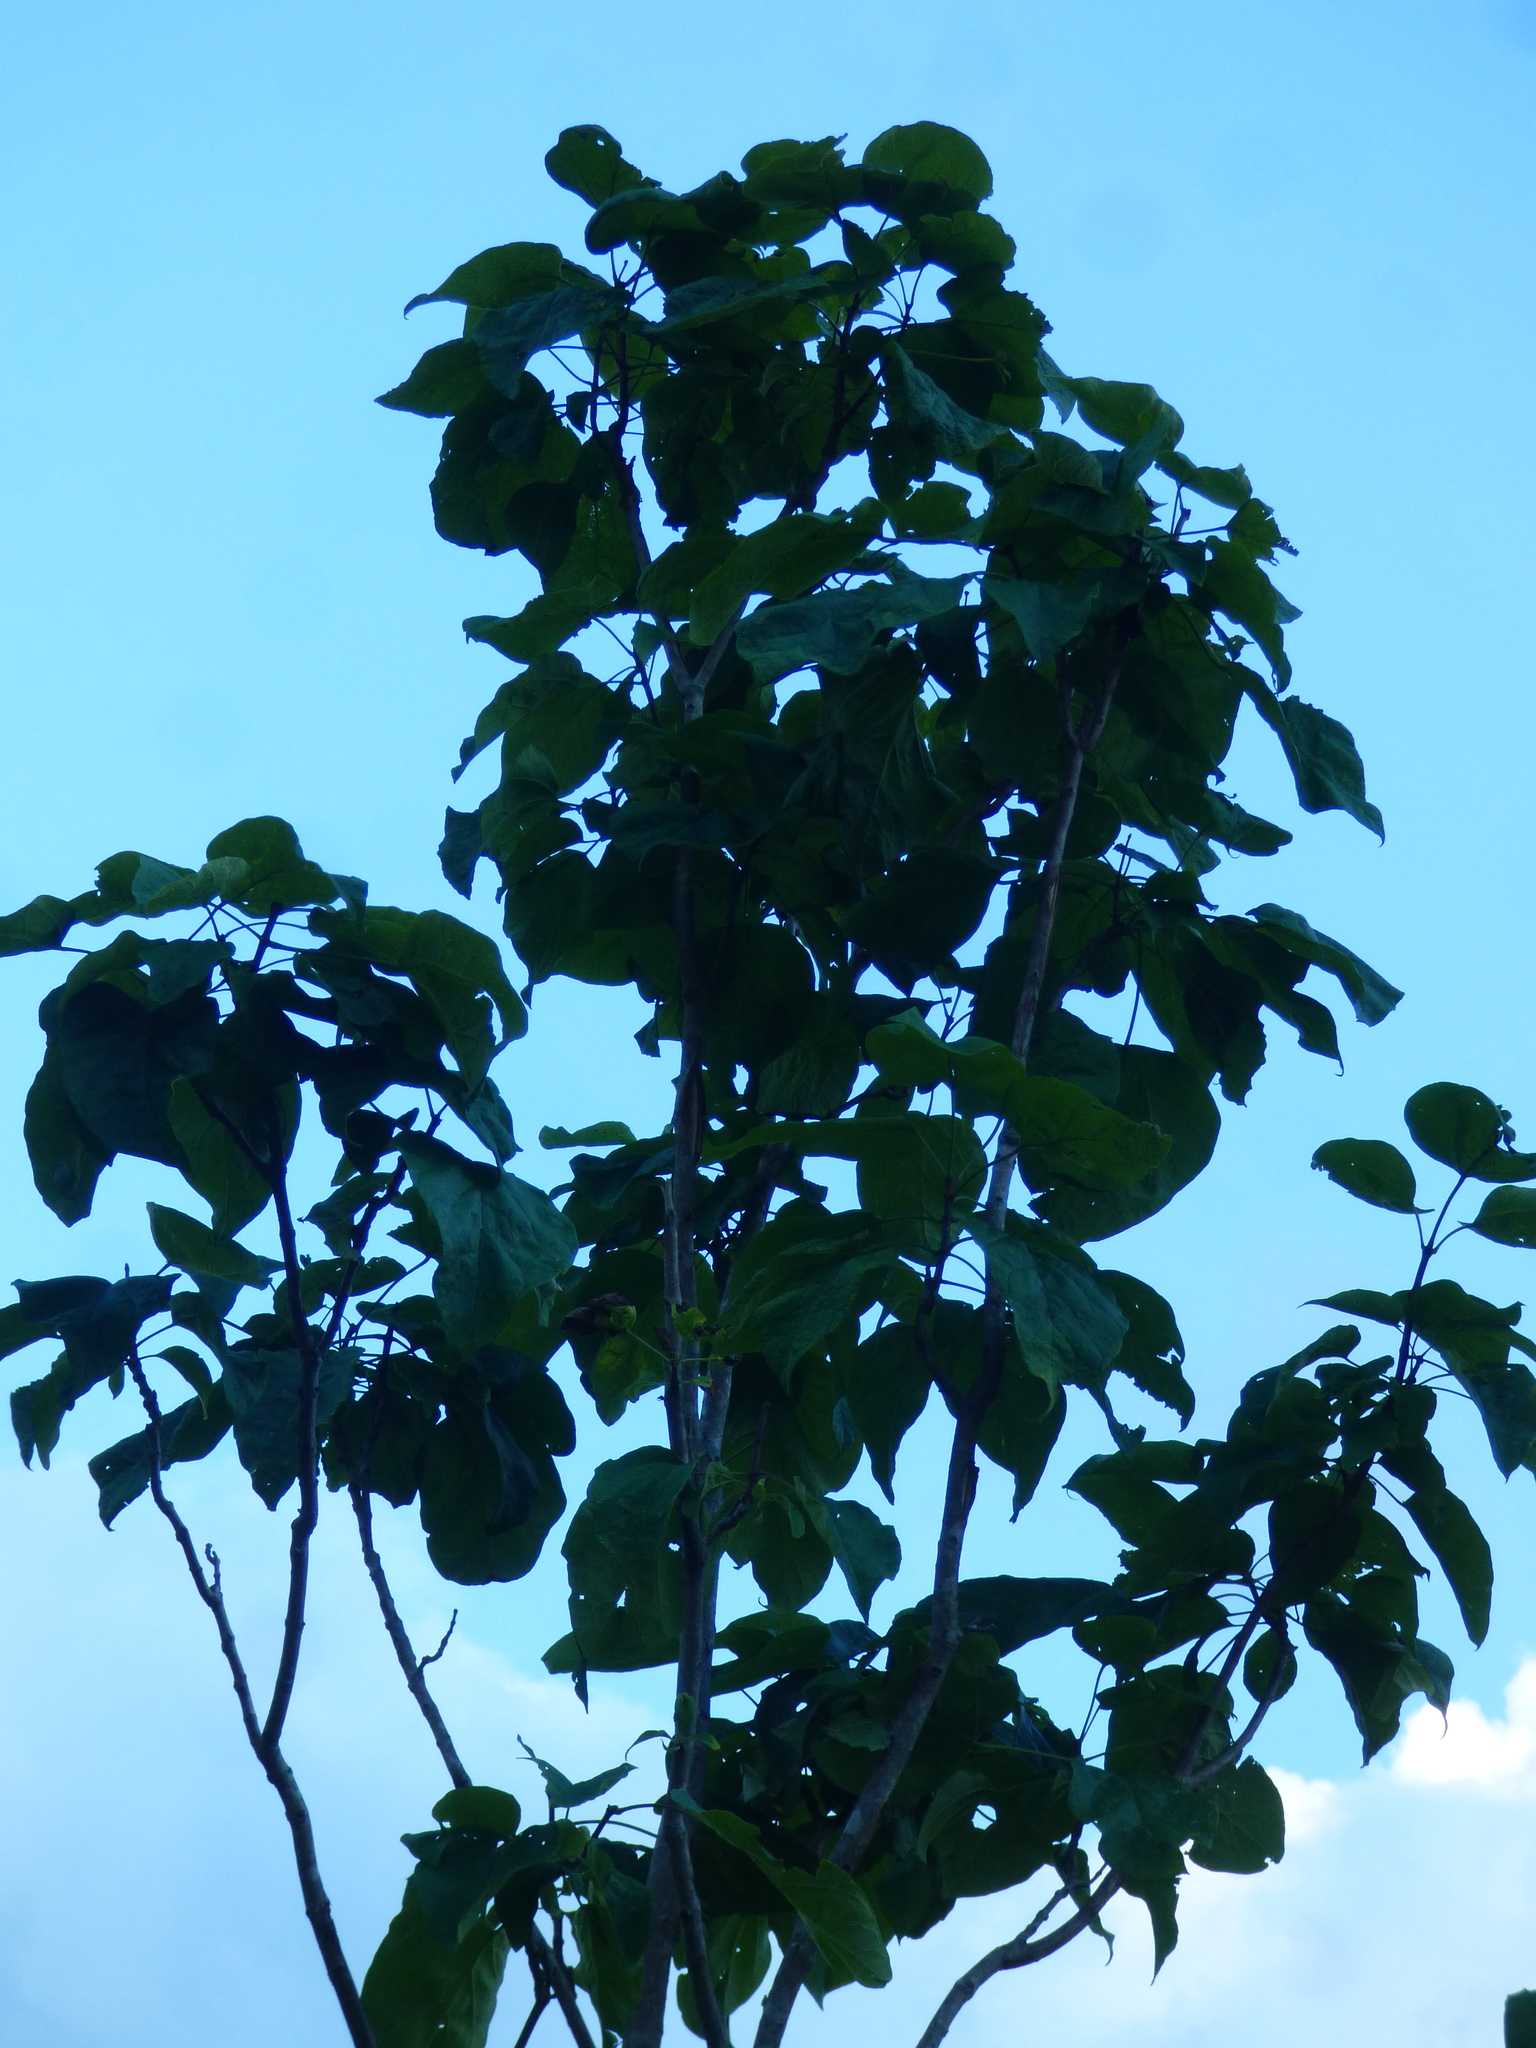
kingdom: Plantae
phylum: Tracheophyta
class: Magnoliopsida
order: Lamiales
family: Paulowniaceae
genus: Paulownia
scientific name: Paulownia tomentosa
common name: Foxglove-tree
